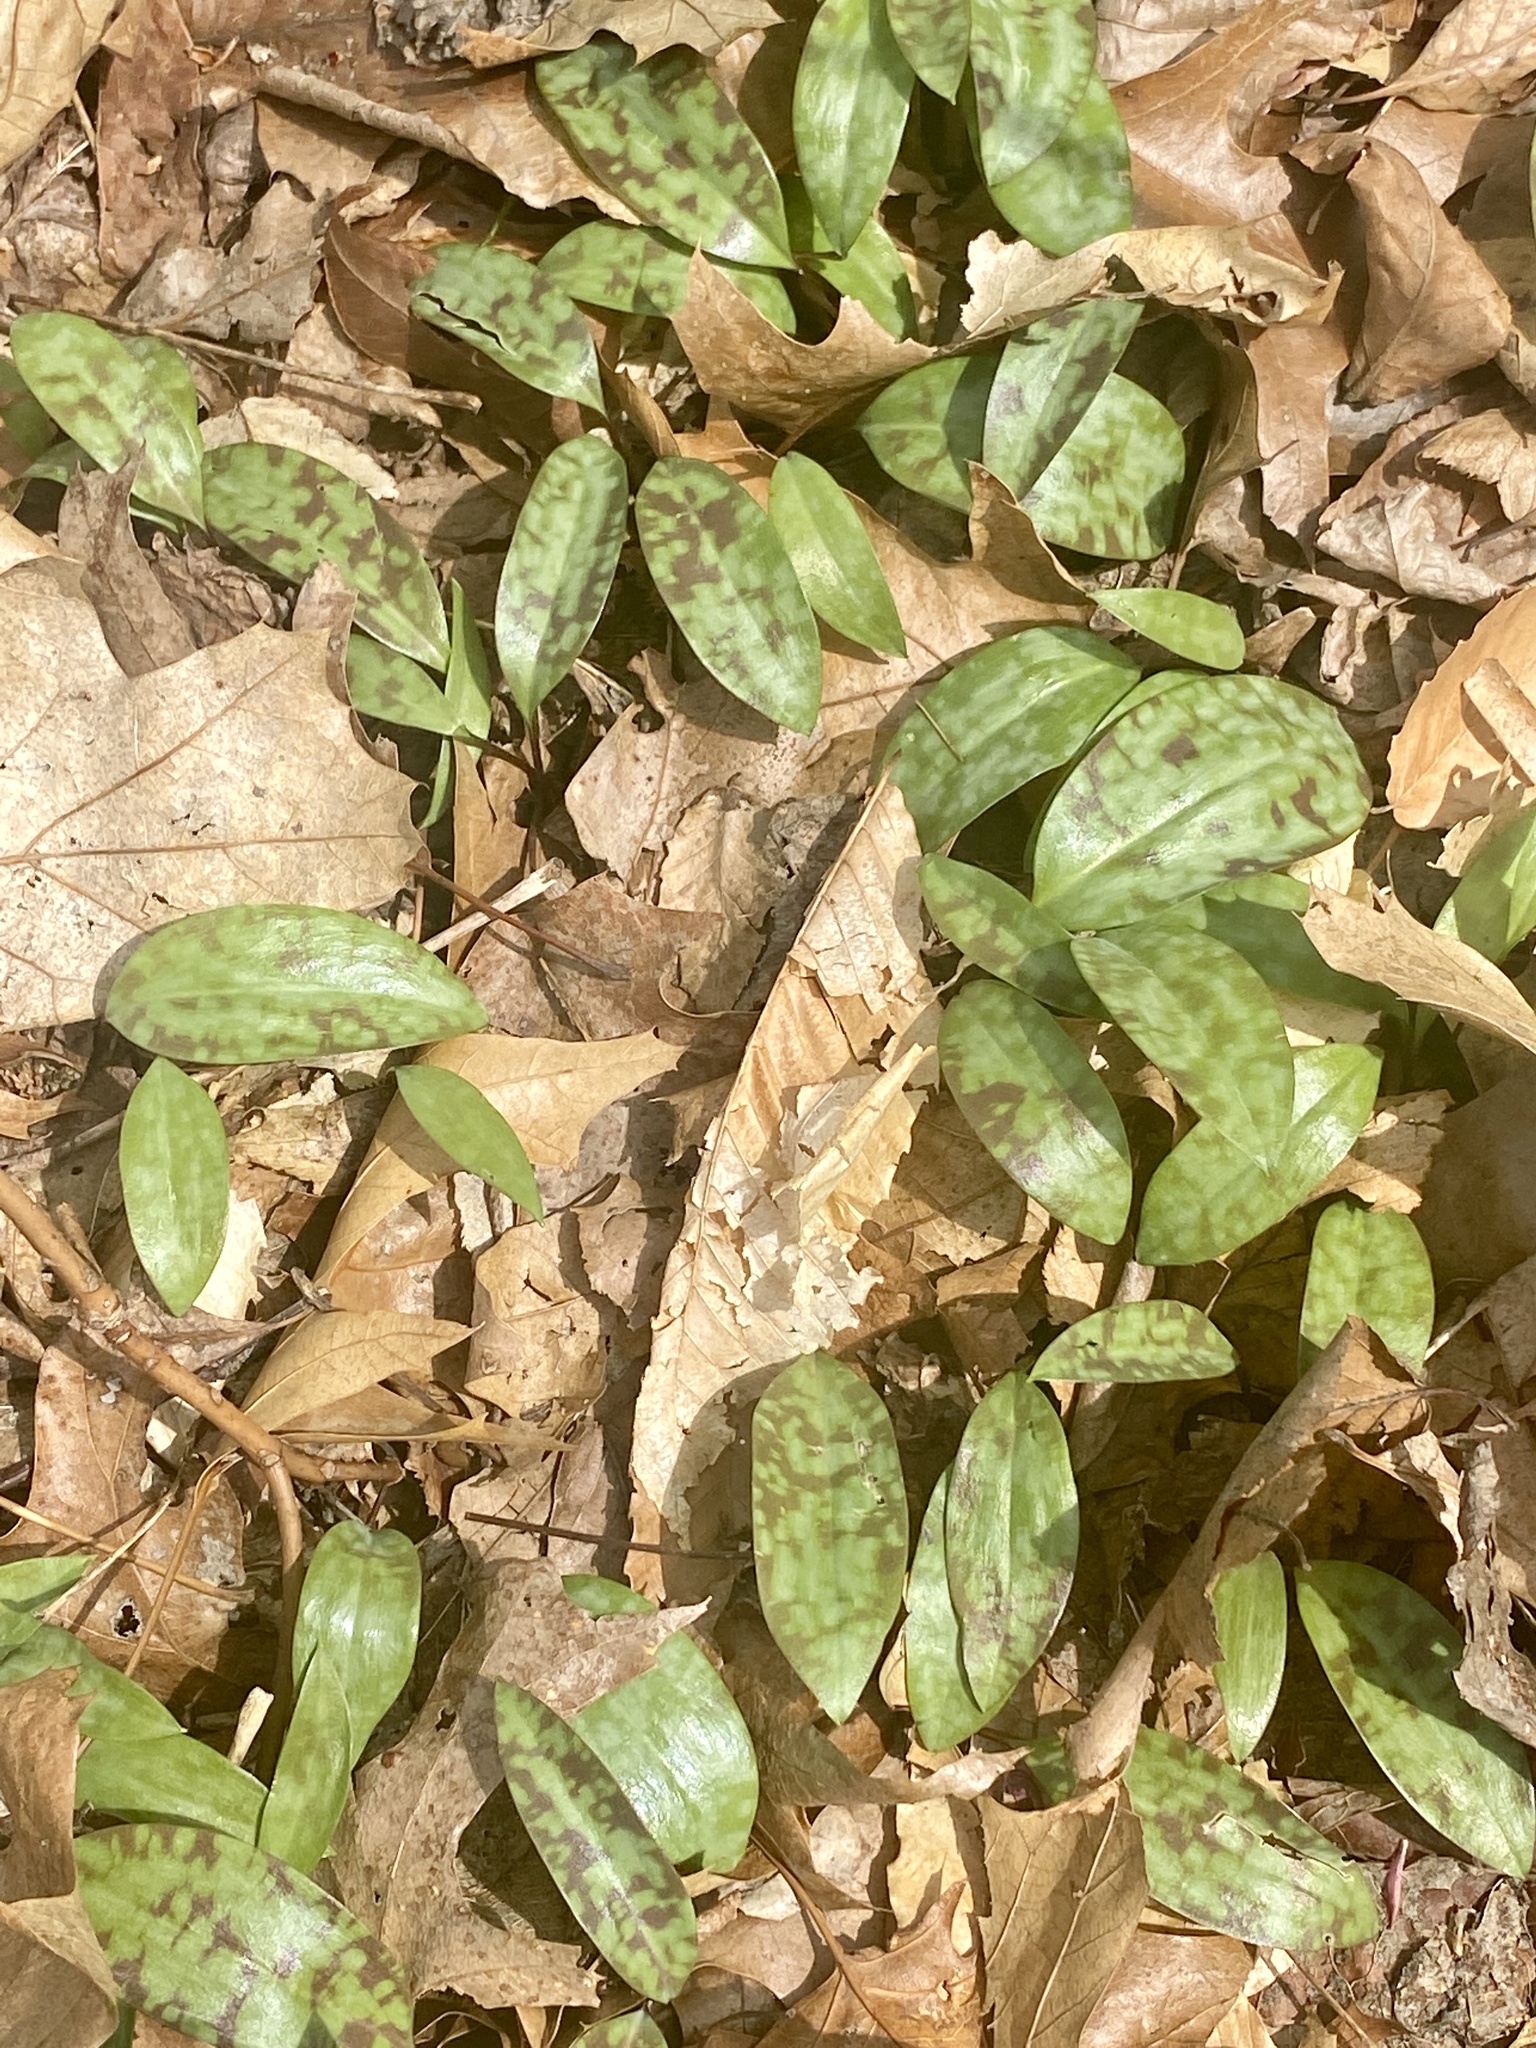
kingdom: Plantae
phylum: Tracheophyta
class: Liliopsida
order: Liliales
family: Liliaceae
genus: Erythronium
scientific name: Erythronium americanum
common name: Yellow adder's-tongue
